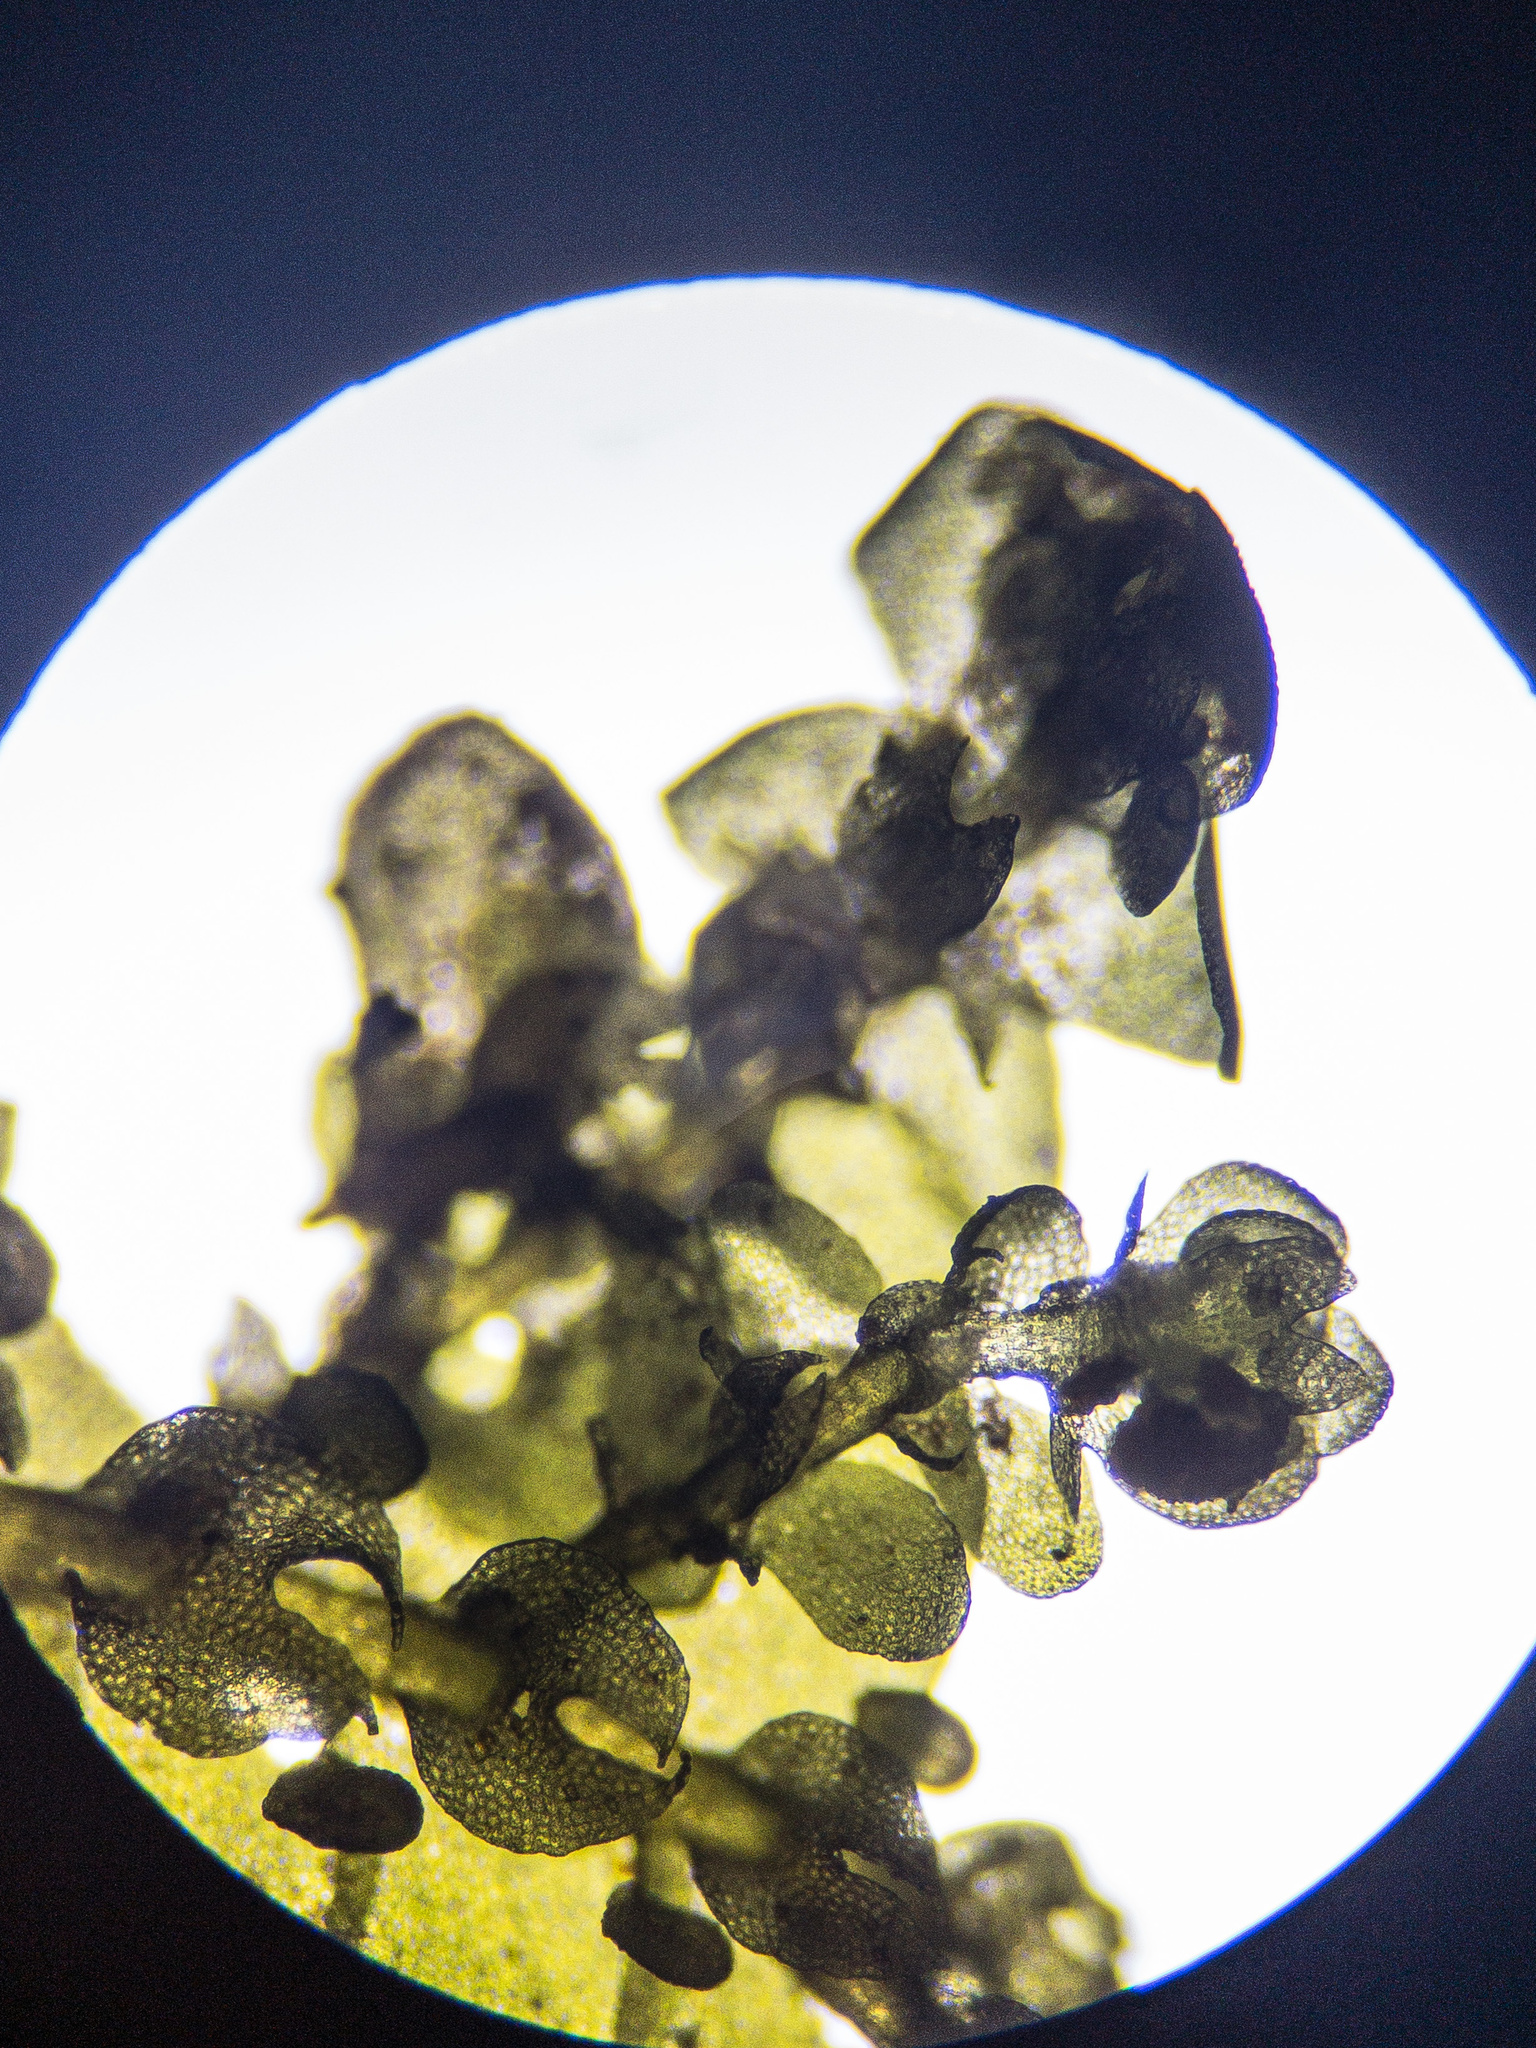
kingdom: Plantae
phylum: Marchantiophyta
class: Jungermanniopsida
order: Porellales
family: Jubulaceae
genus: Jubula
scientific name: Jubula hutchinsiae
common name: Hutchins' hollywort
